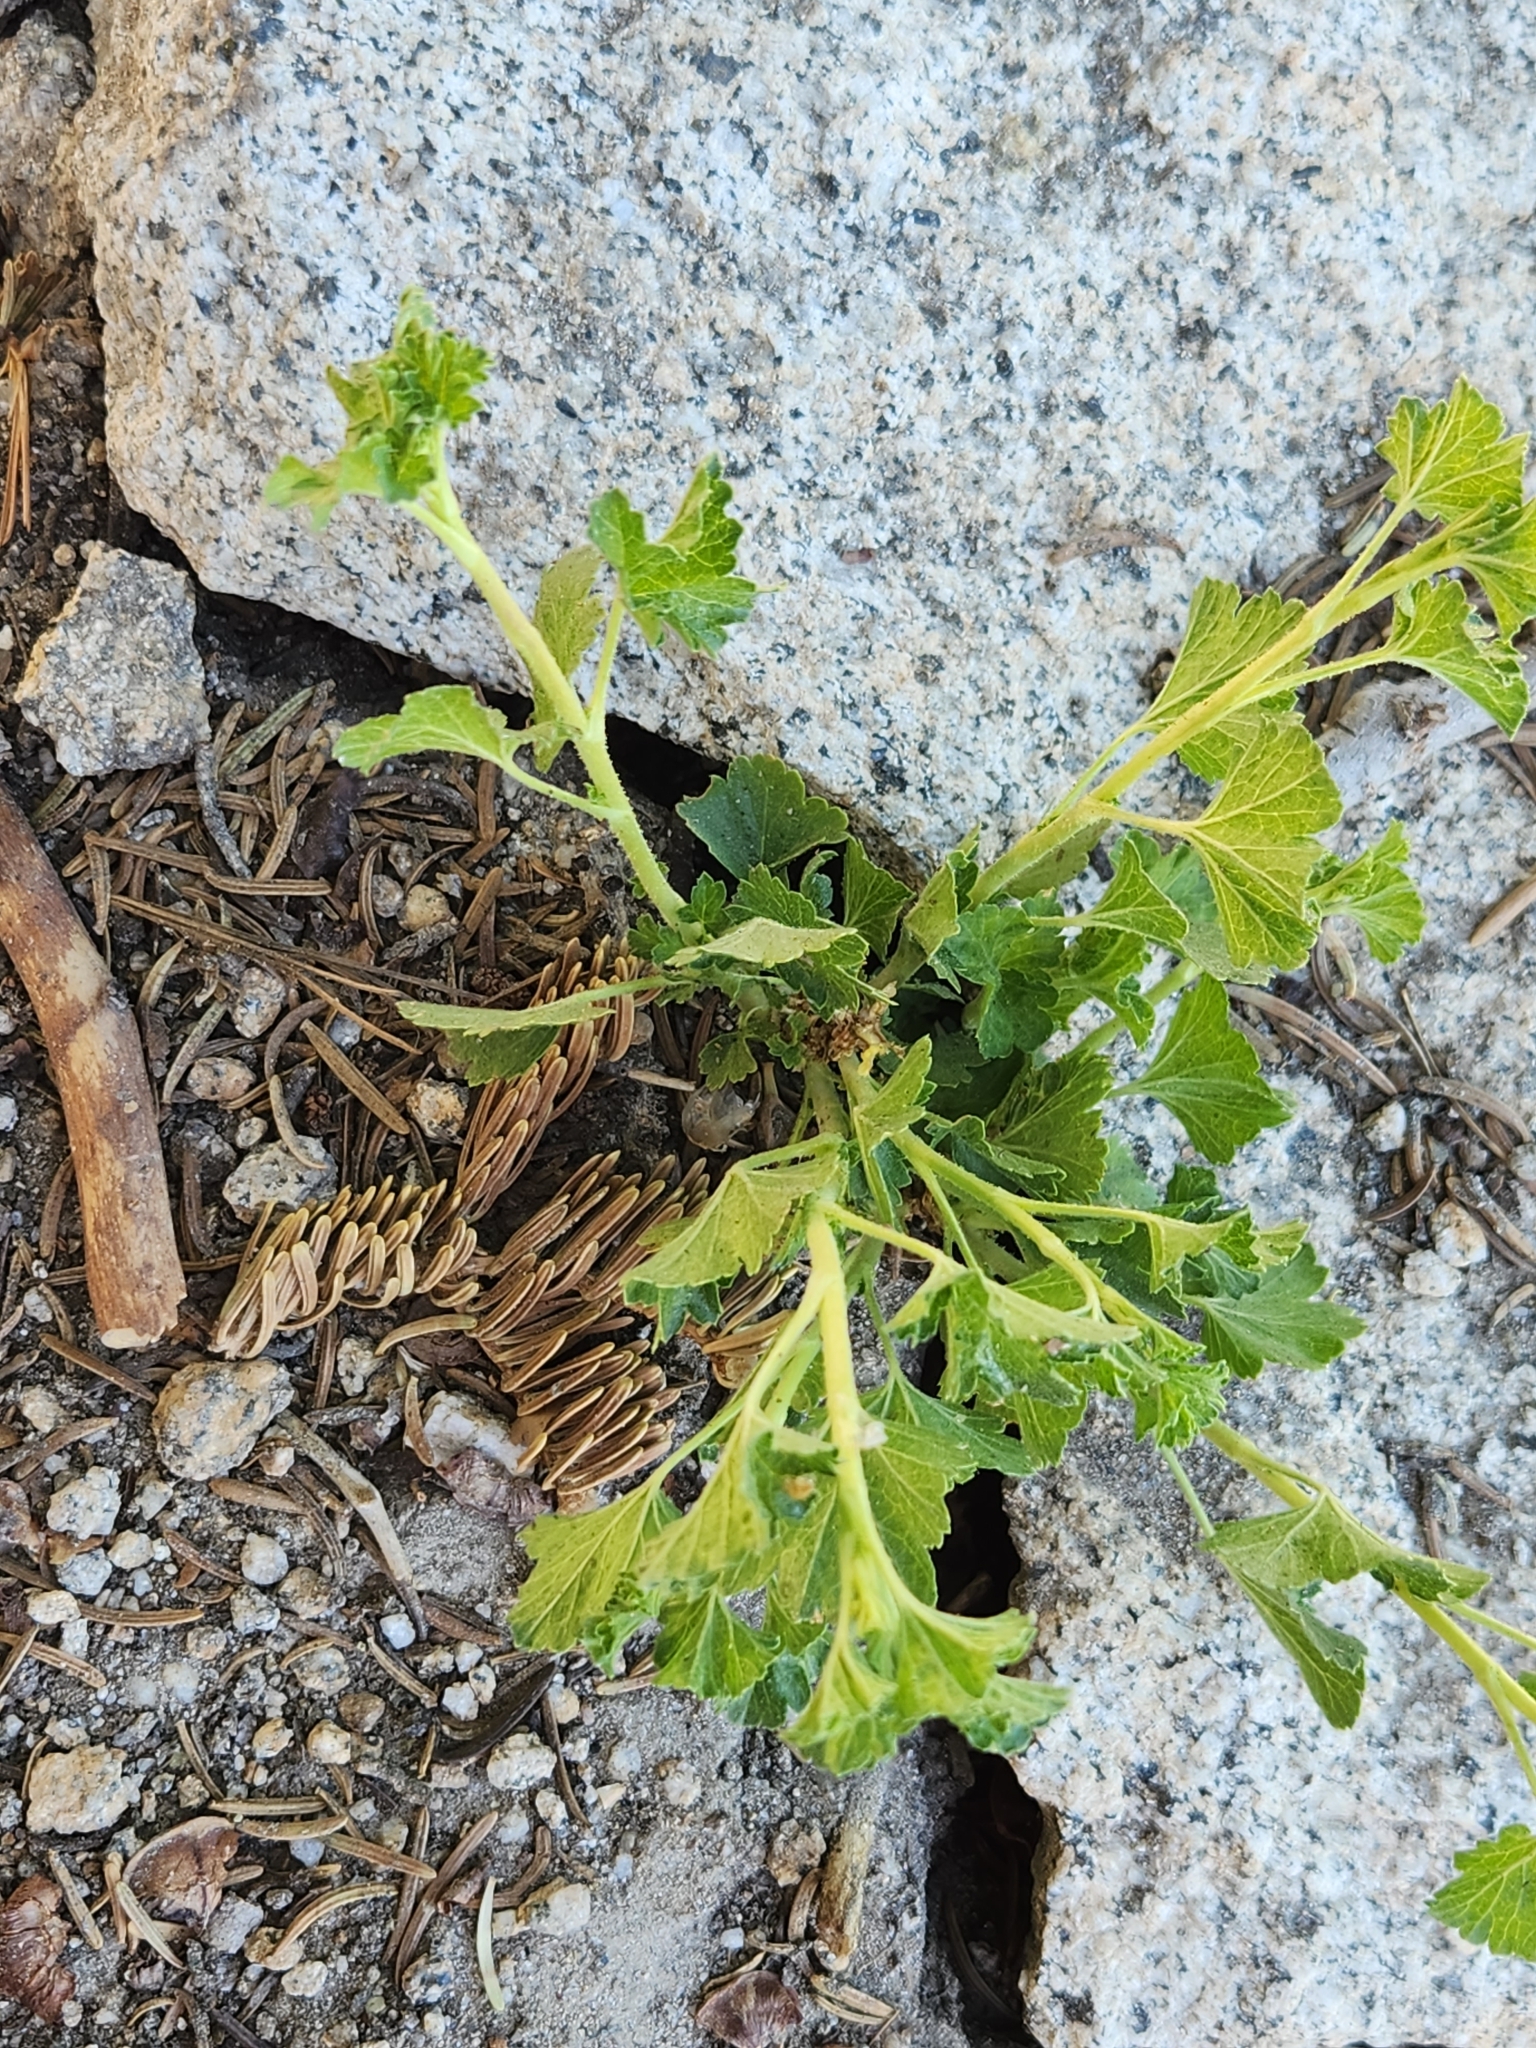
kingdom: Plantae
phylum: Tracheophyta
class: Magnoliopsida
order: Saxifragales
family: Grossulariaceae
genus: Ribes
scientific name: Ribes cereum
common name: Wax currant
